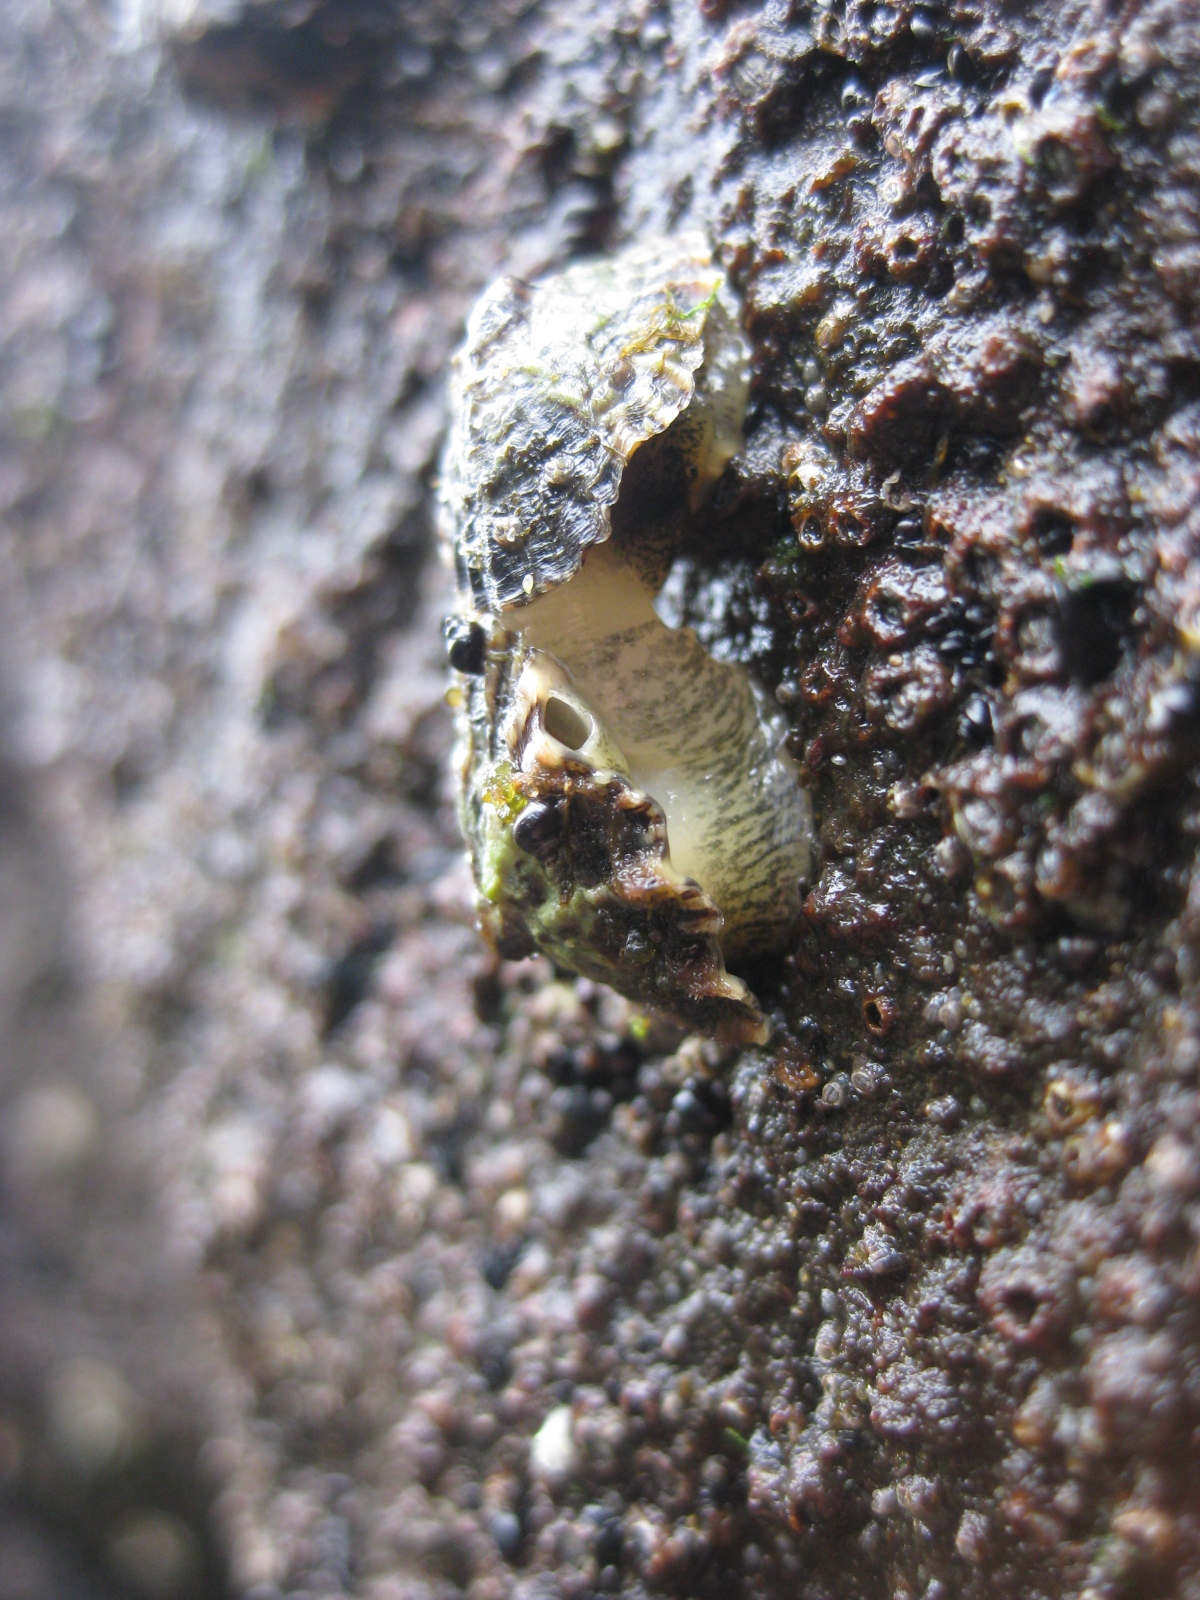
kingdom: Animalia
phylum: Mollusca
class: Gastropoda
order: Siphonariida
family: Siphonariidae
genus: Siphonaria
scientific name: Siphonaria australis
